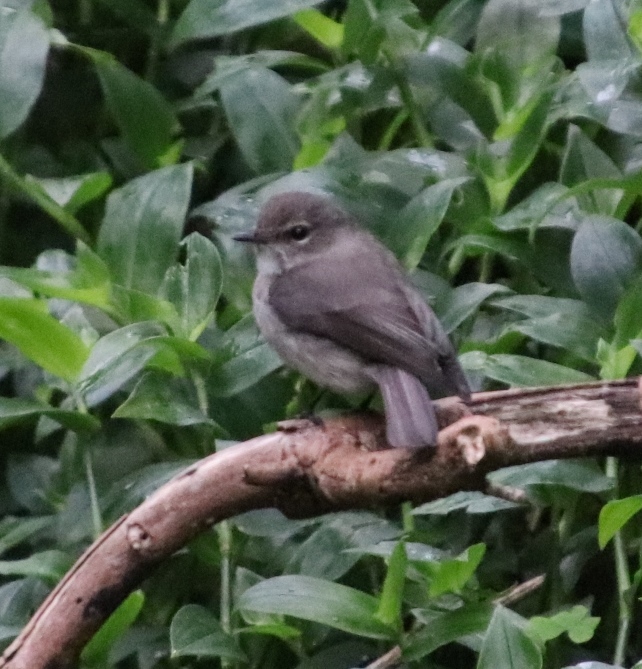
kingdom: Animalia
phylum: Chordata
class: Aves
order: Passeriformes
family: Muscicapidae
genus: Muscicapa
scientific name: Muscicapa adusta
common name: African dusky flycatcher
